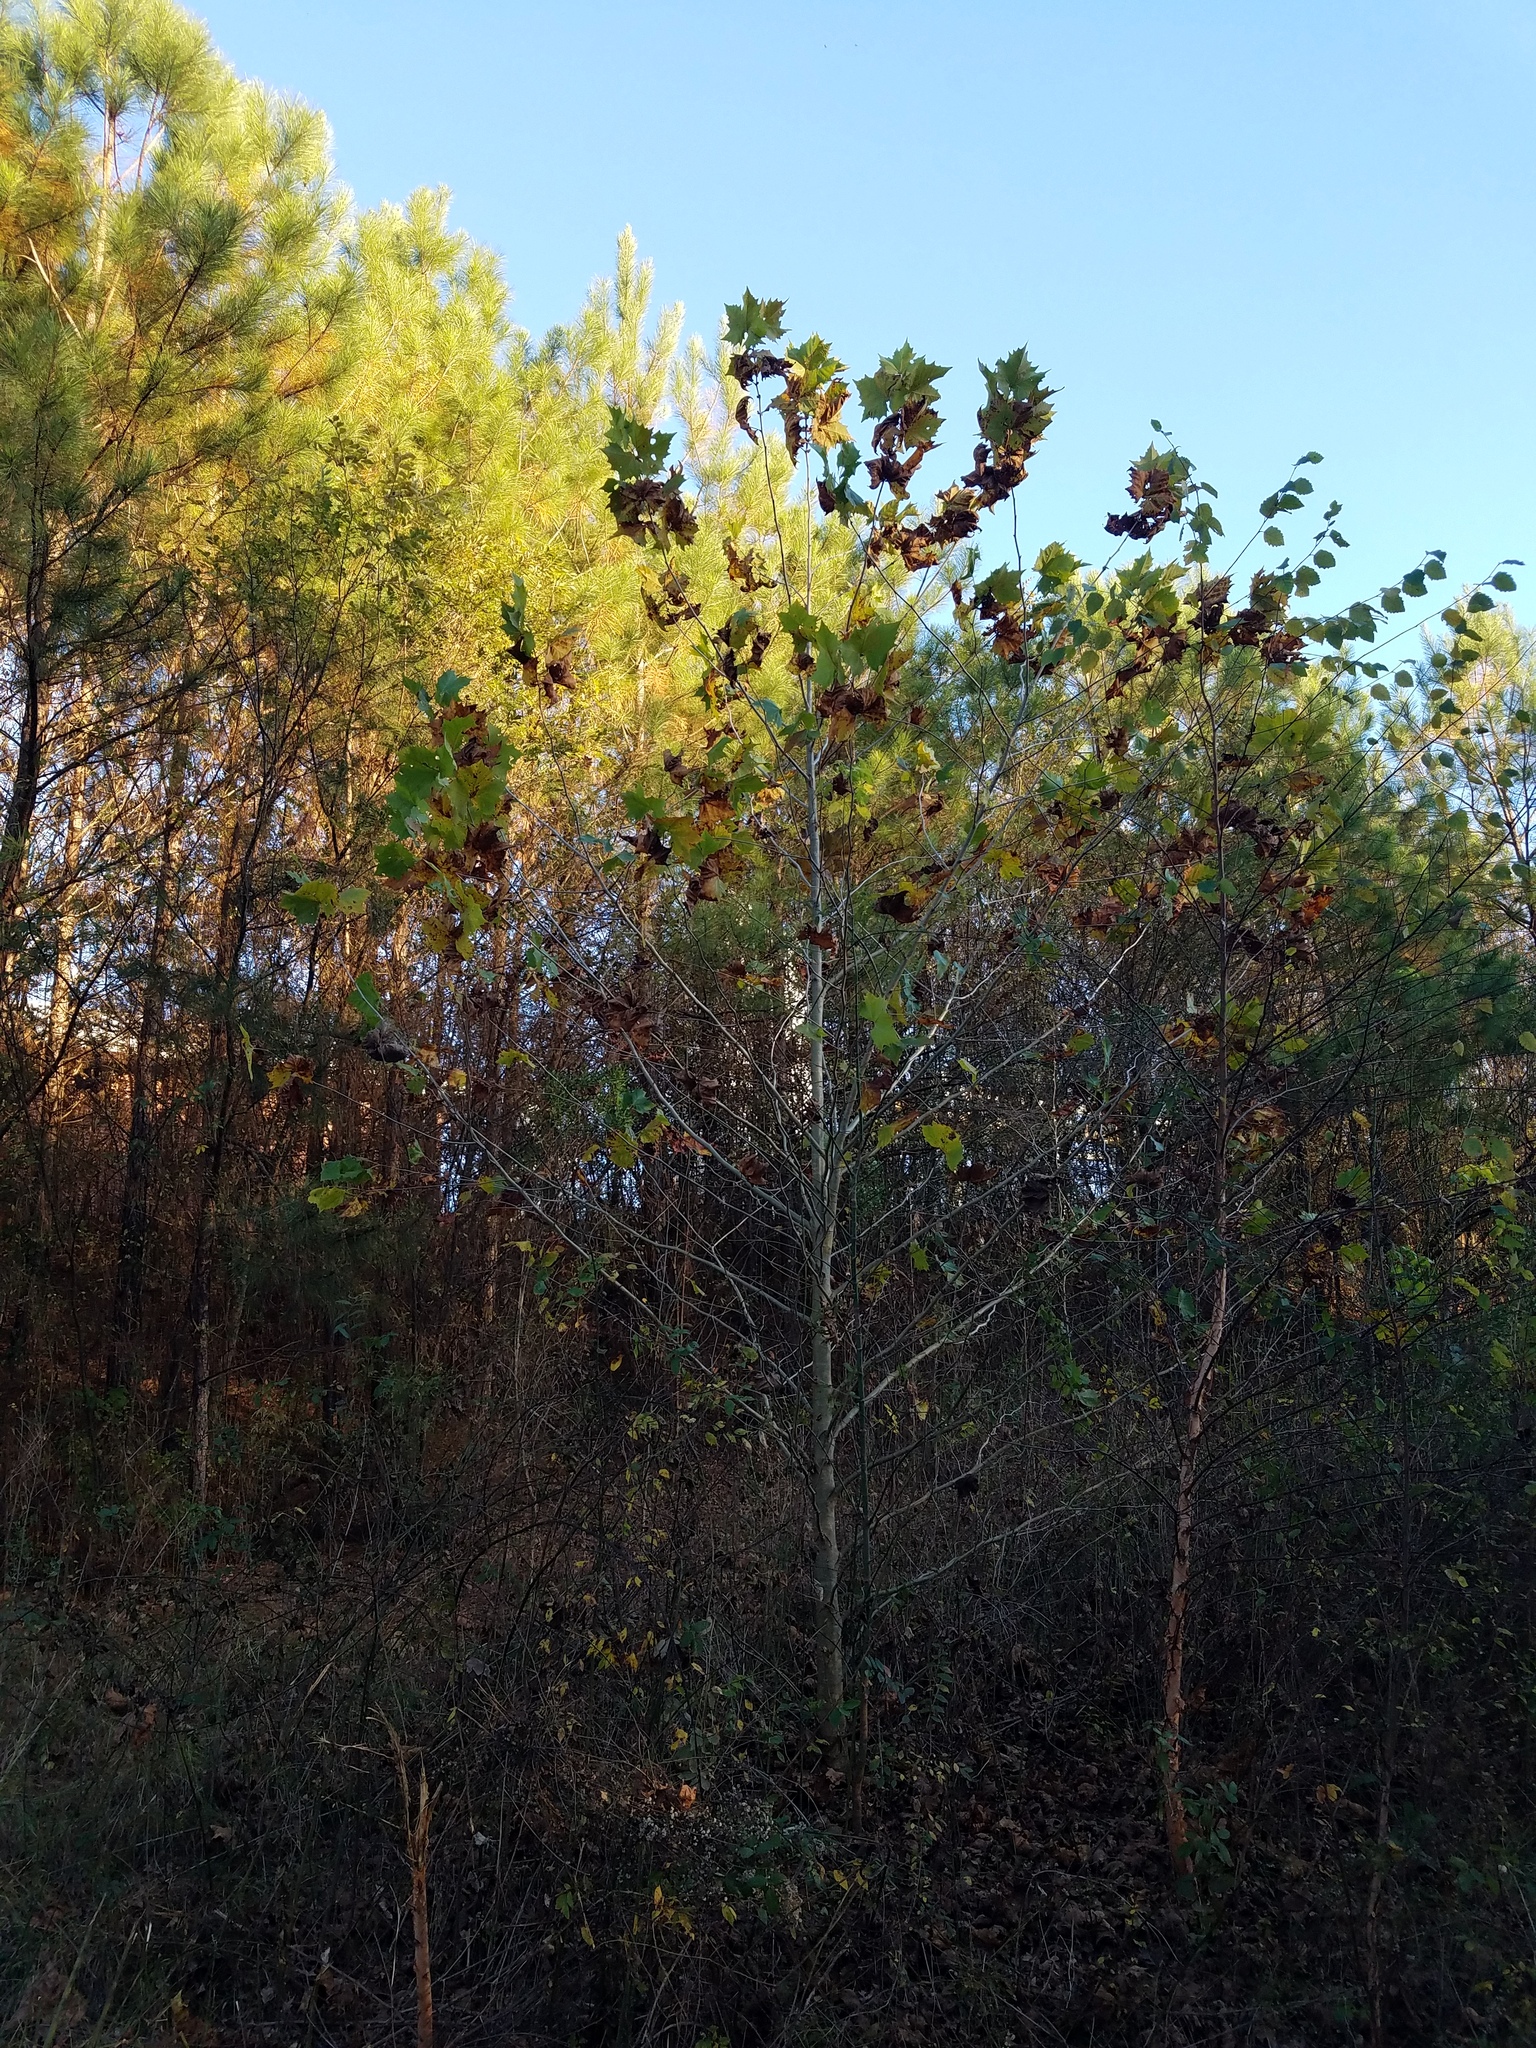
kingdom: Plantae
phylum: Tracheophyta
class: Magnoliopsida
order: Proteales
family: Platanaceae
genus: Platanus
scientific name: Platanus occidentalis
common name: American sycamore
